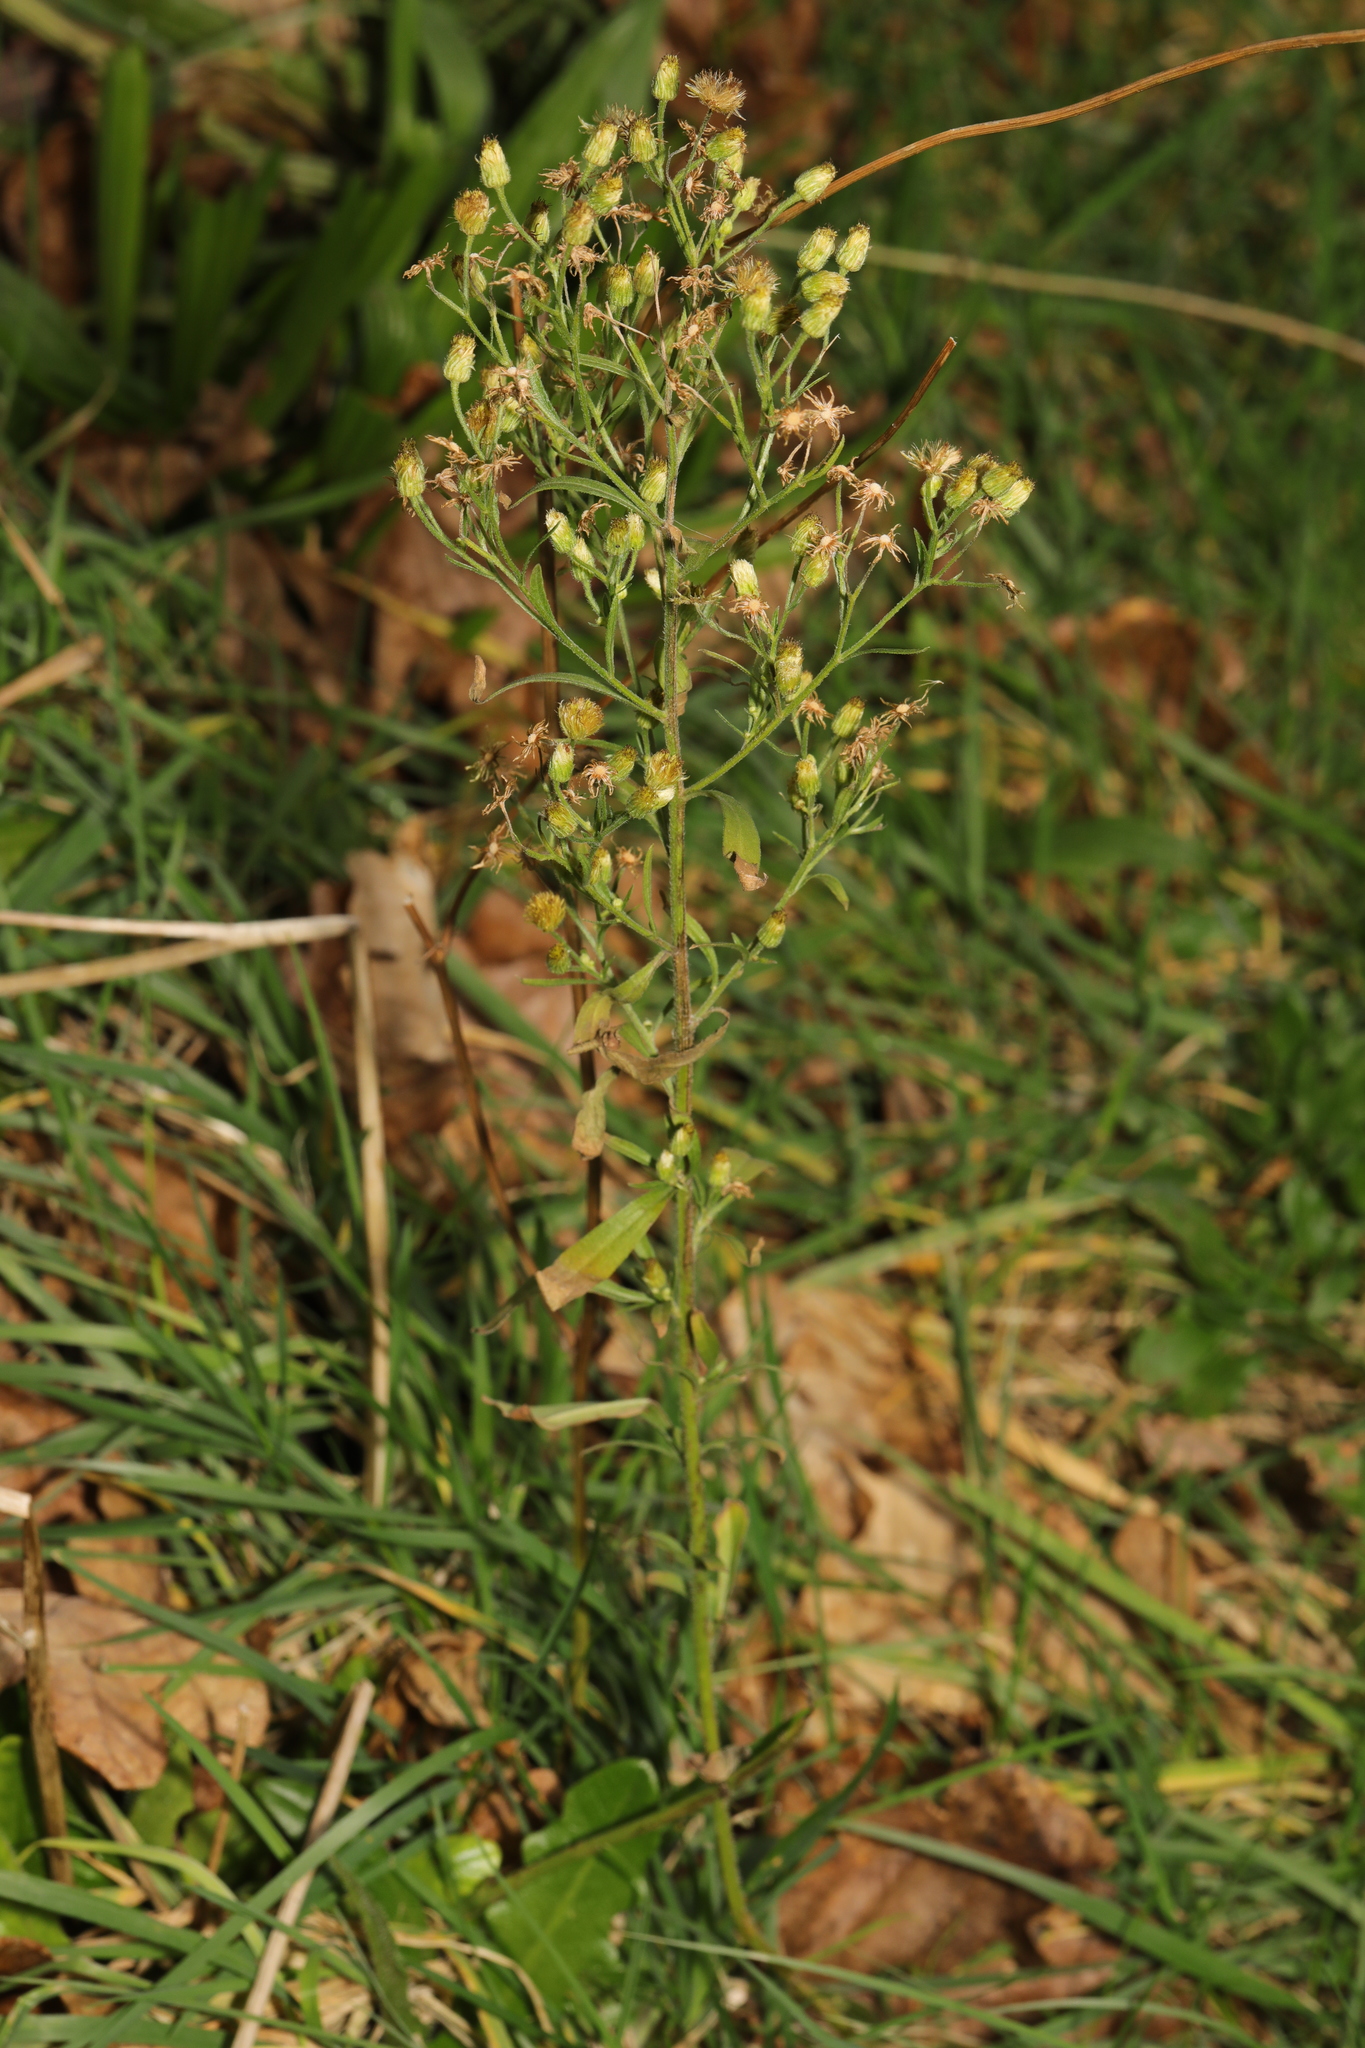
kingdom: Plantae
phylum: Tracheophyta
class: Magnoliopsida
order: Asterales
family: Asteraceae
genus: Erigeron
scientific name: Erigeron sumatrensis
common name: Daisy
